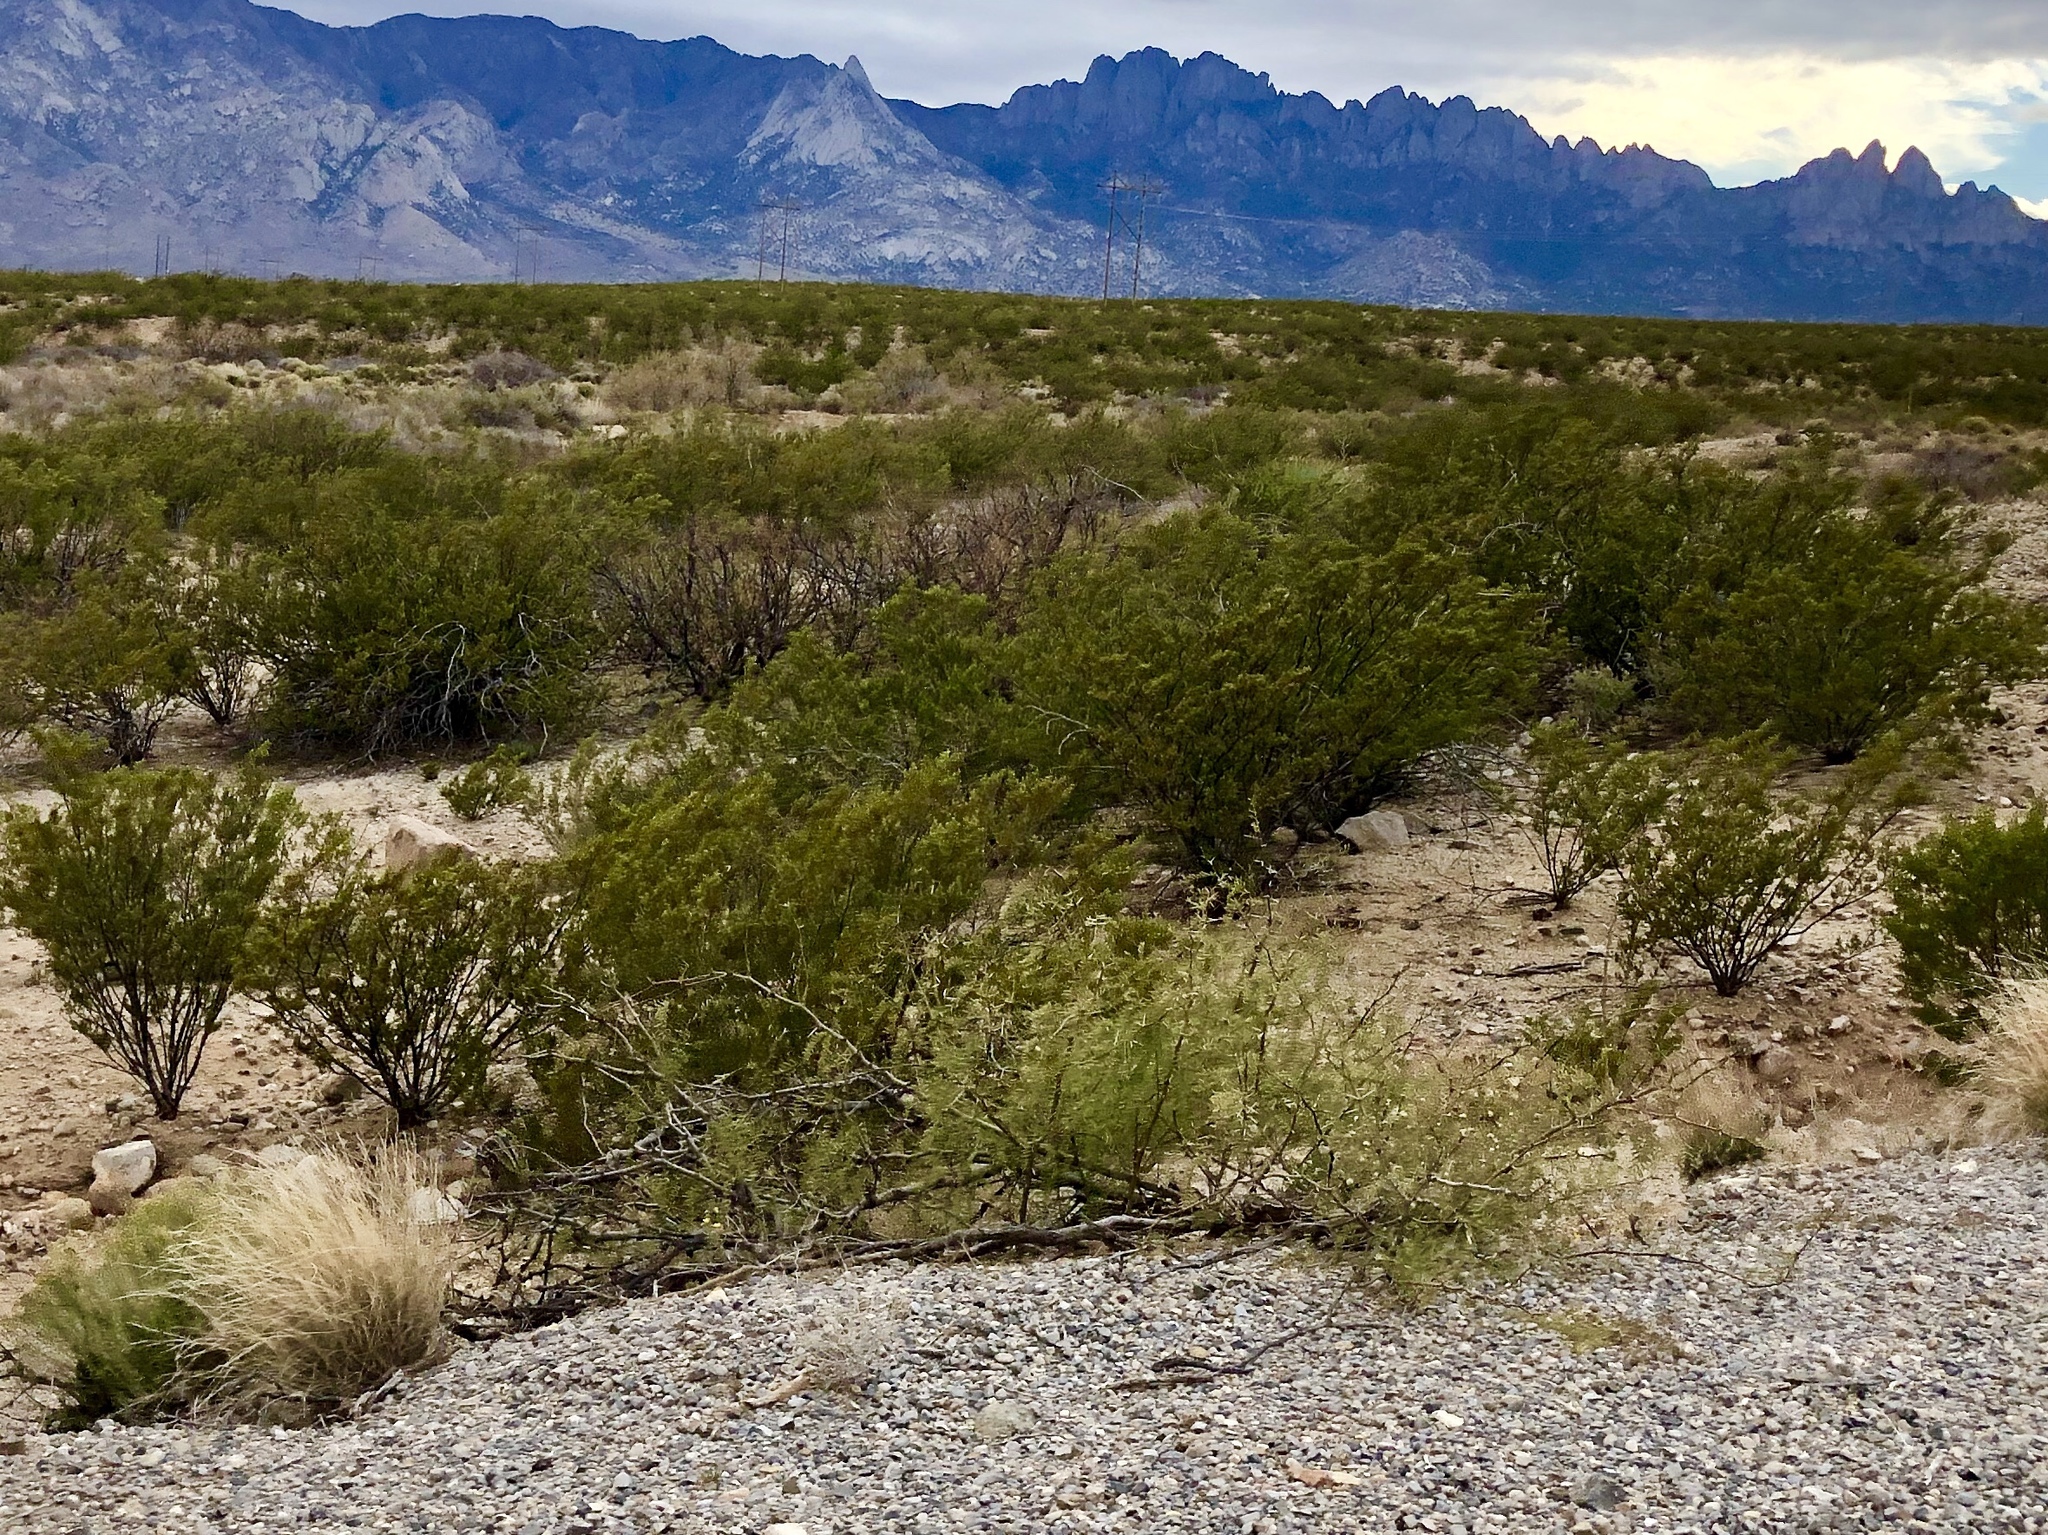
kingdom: Plantae
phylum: Tracheophyta
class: Magnoliopsida
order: Zygophyllales
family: Zygophyllaceae
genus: Larrea
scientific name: Larrea tridentata
